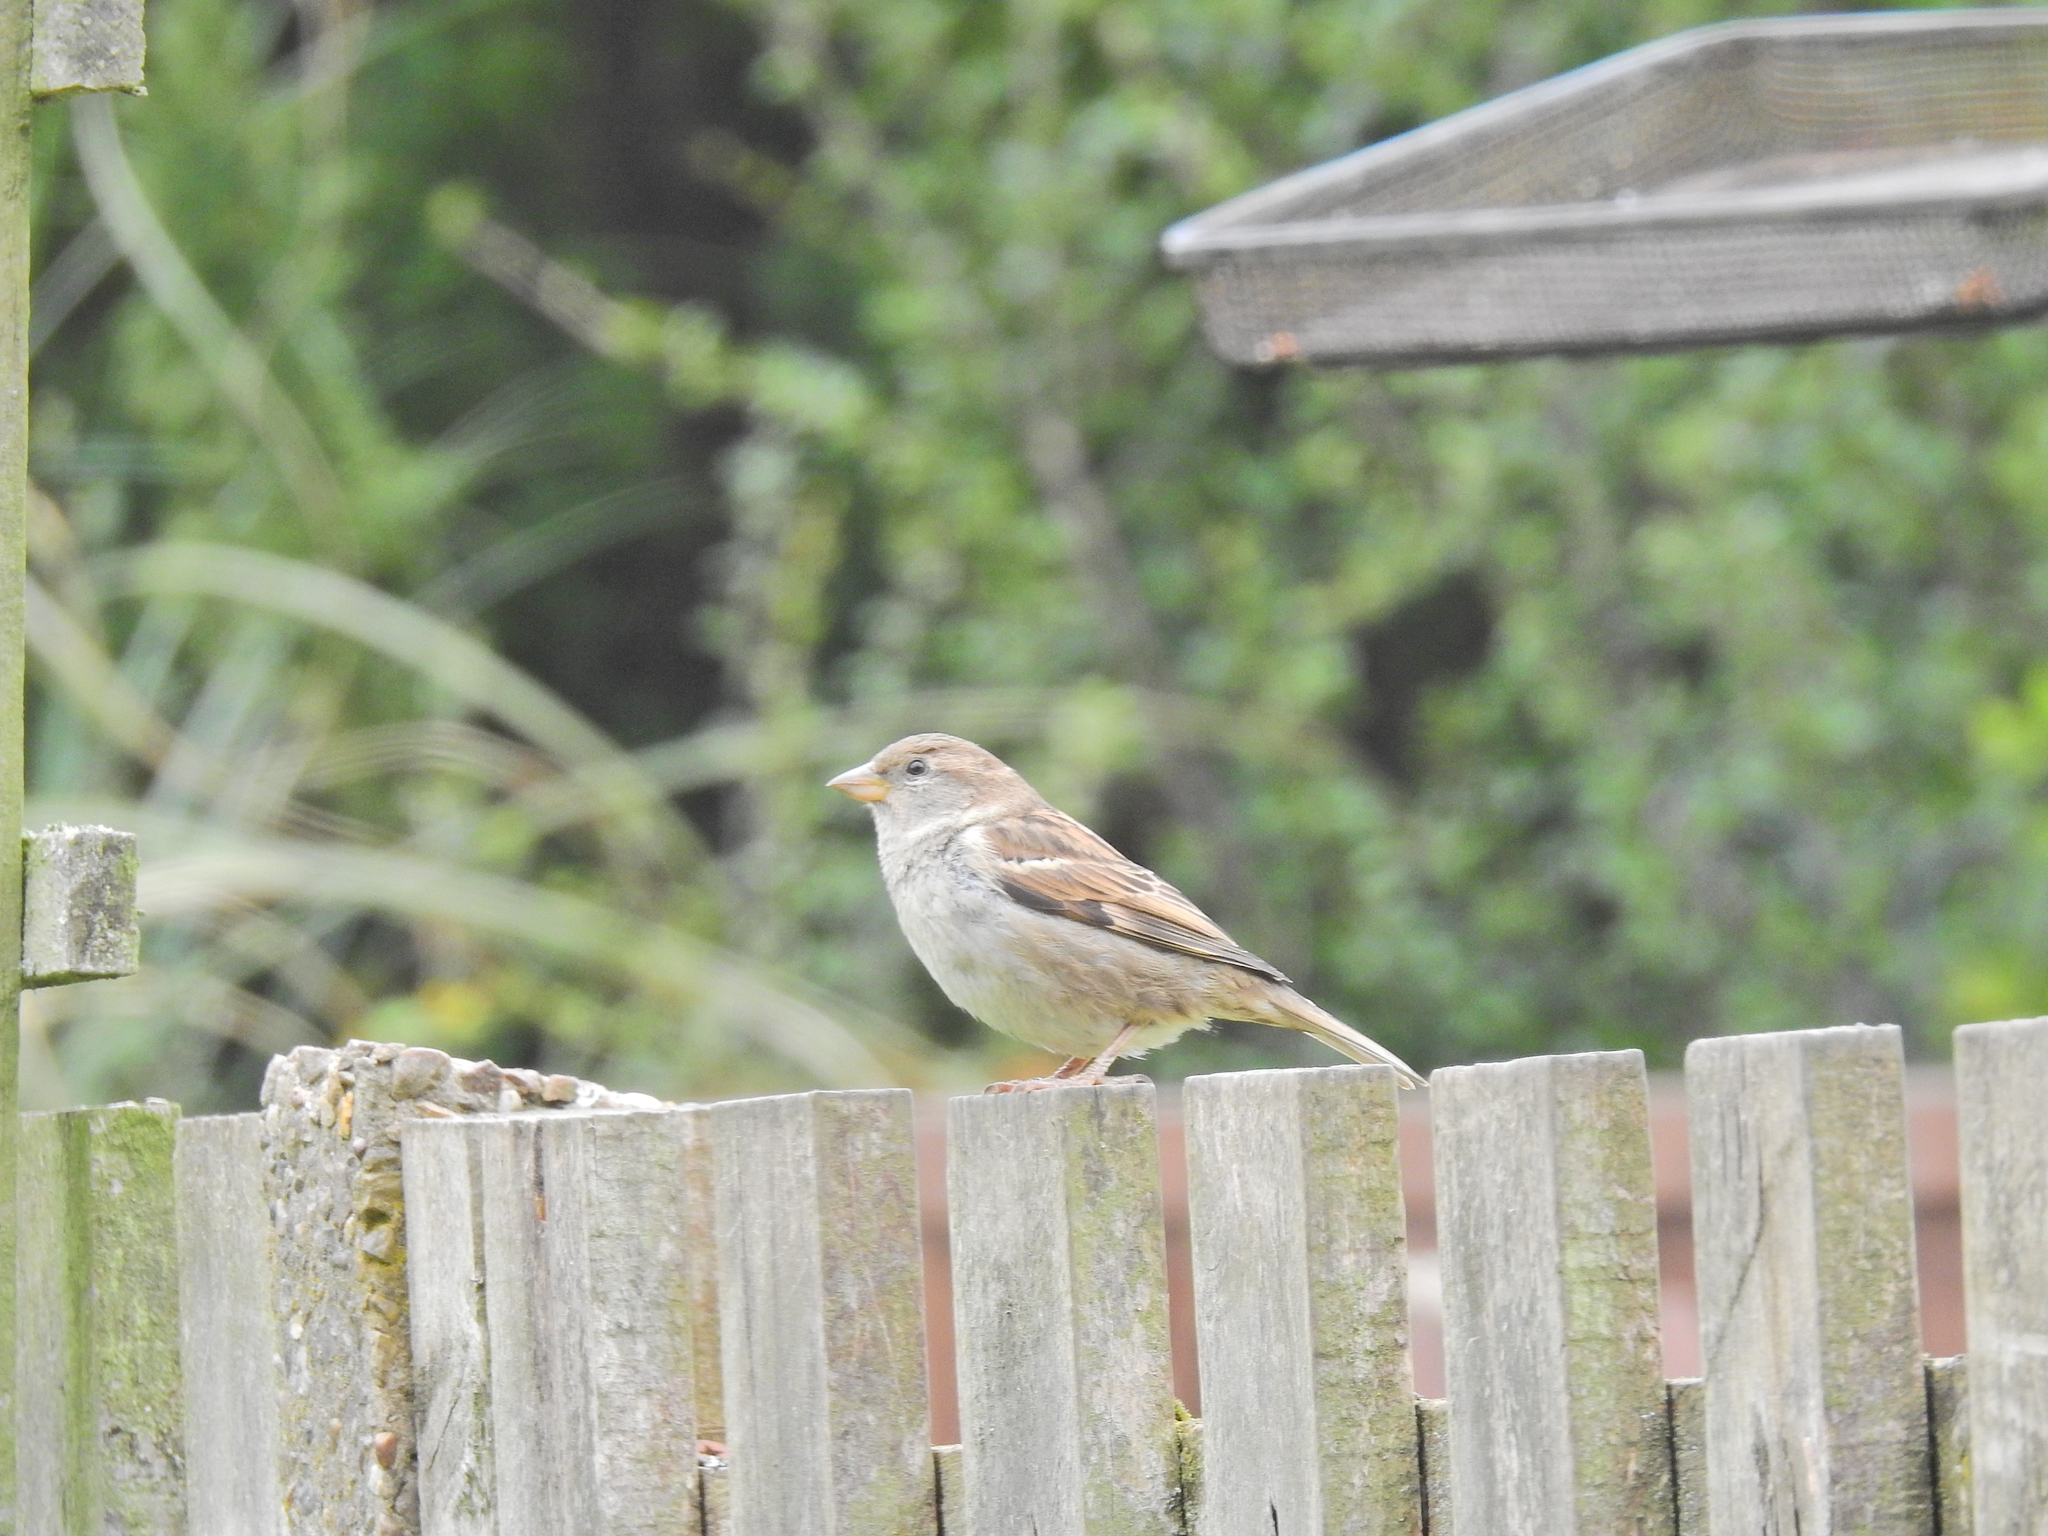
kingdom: Animalia
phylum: Chordata
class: Aves
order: Passeriformes
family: Passeridae
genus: Passer
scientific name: Passer domesticus
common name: House sparrow
